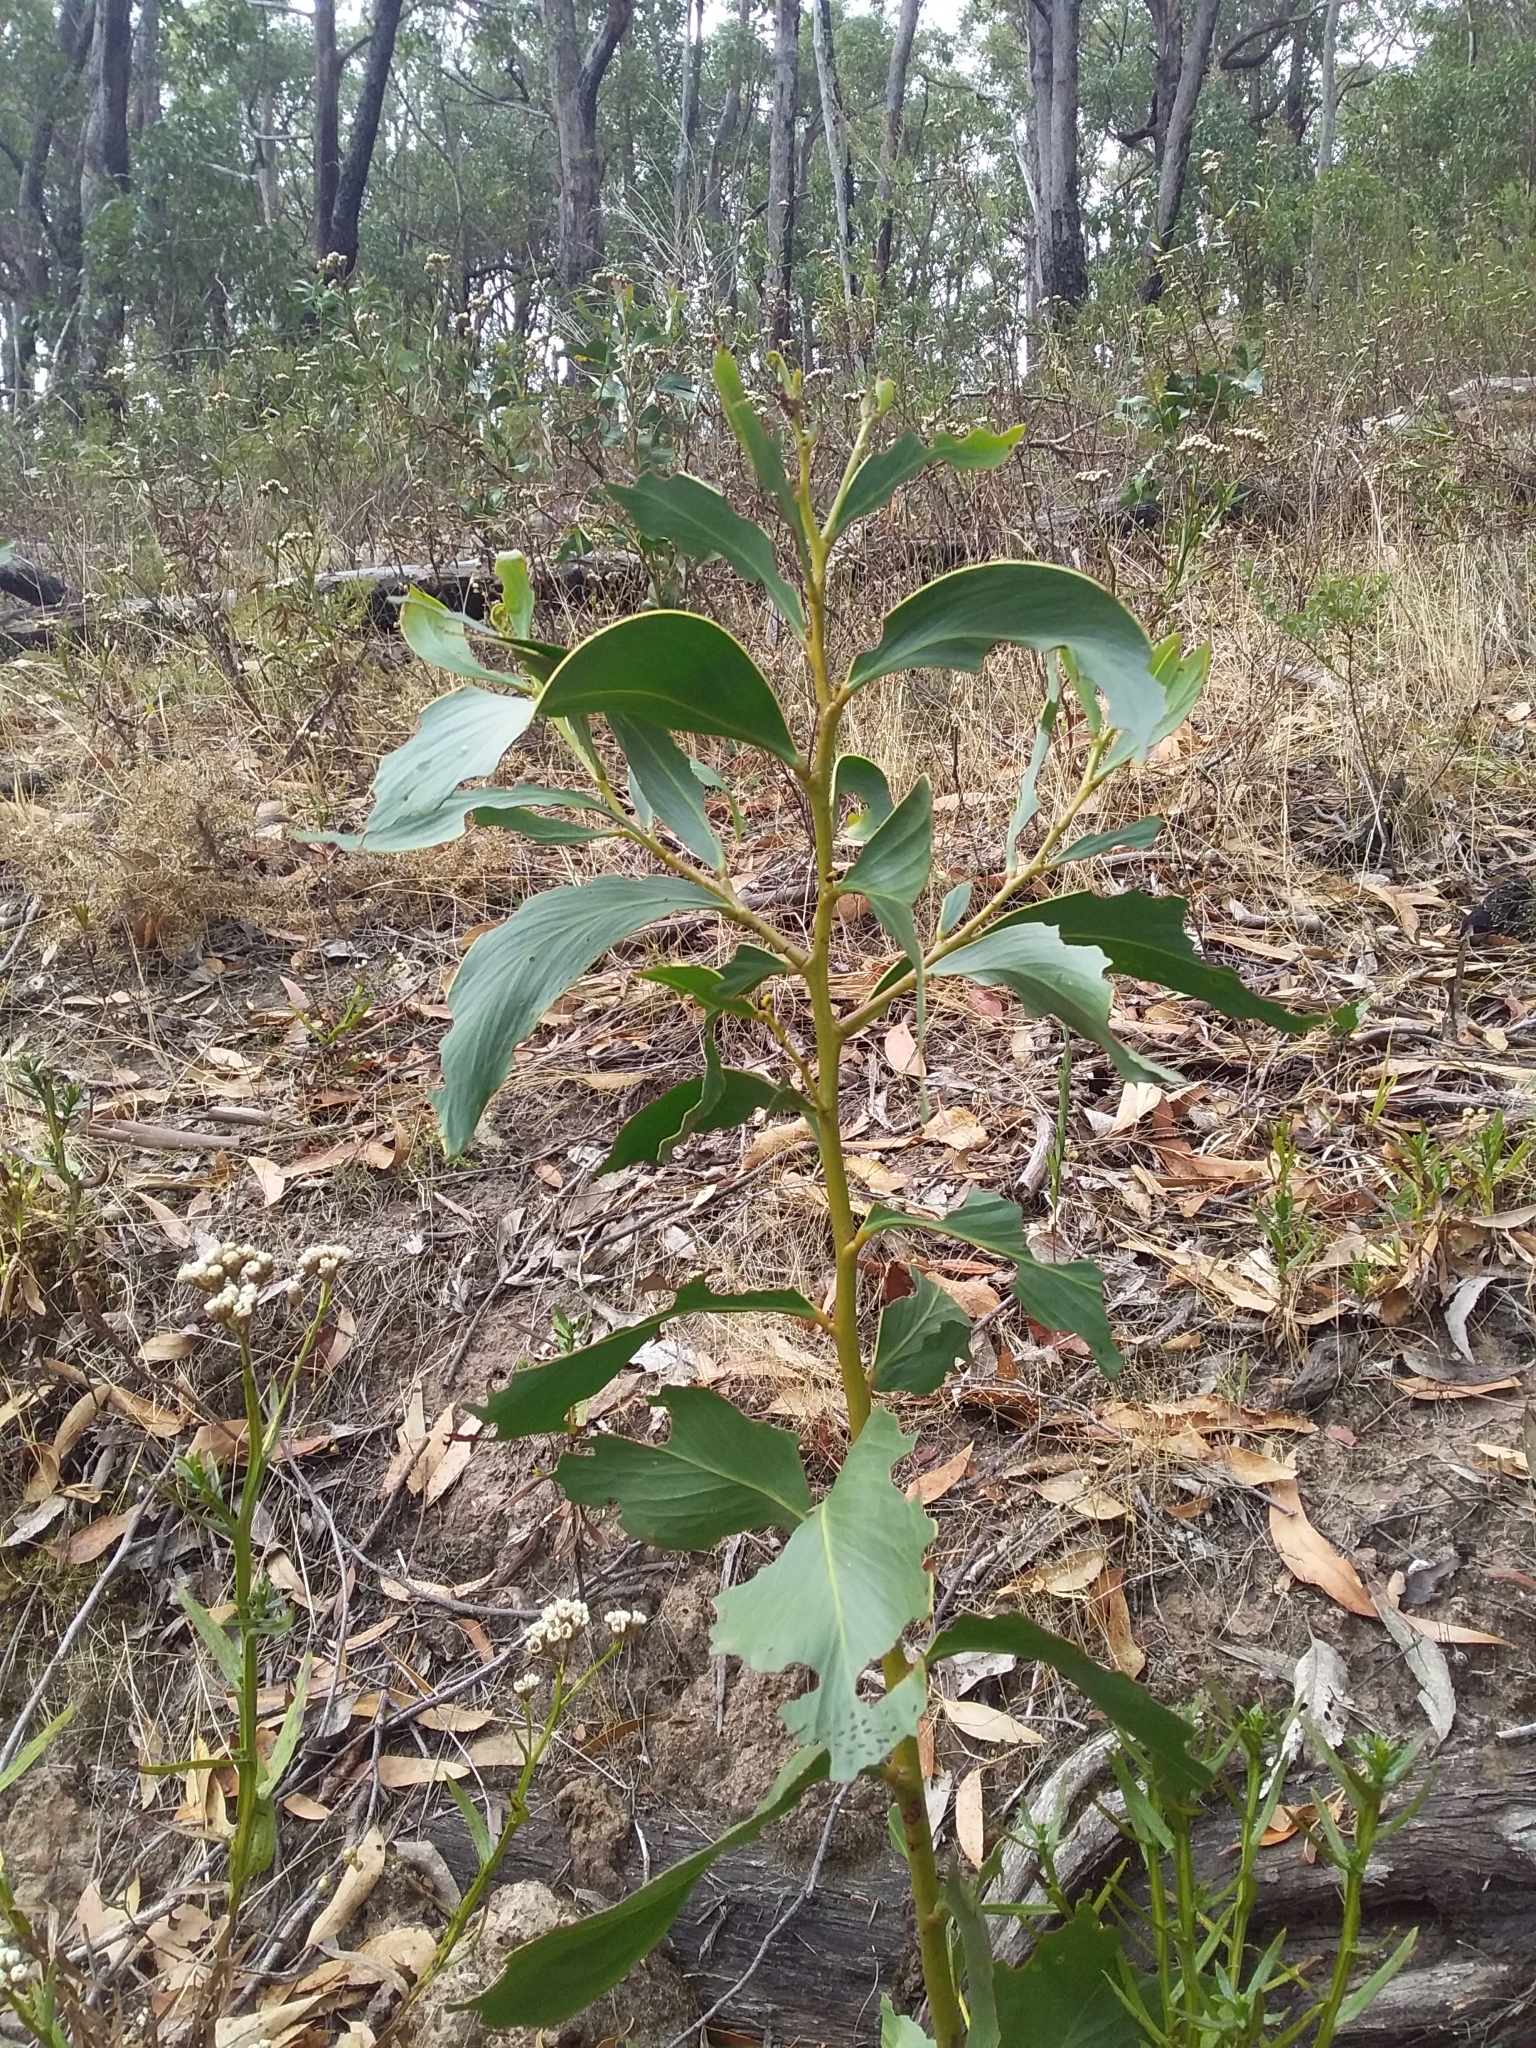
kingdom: Plantae
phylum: Tracheophyta
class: Magnoliopsida
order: Fabales
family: Fabaceae
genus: Acacia
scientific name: Acacia pycnantha
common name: Golden wattle
